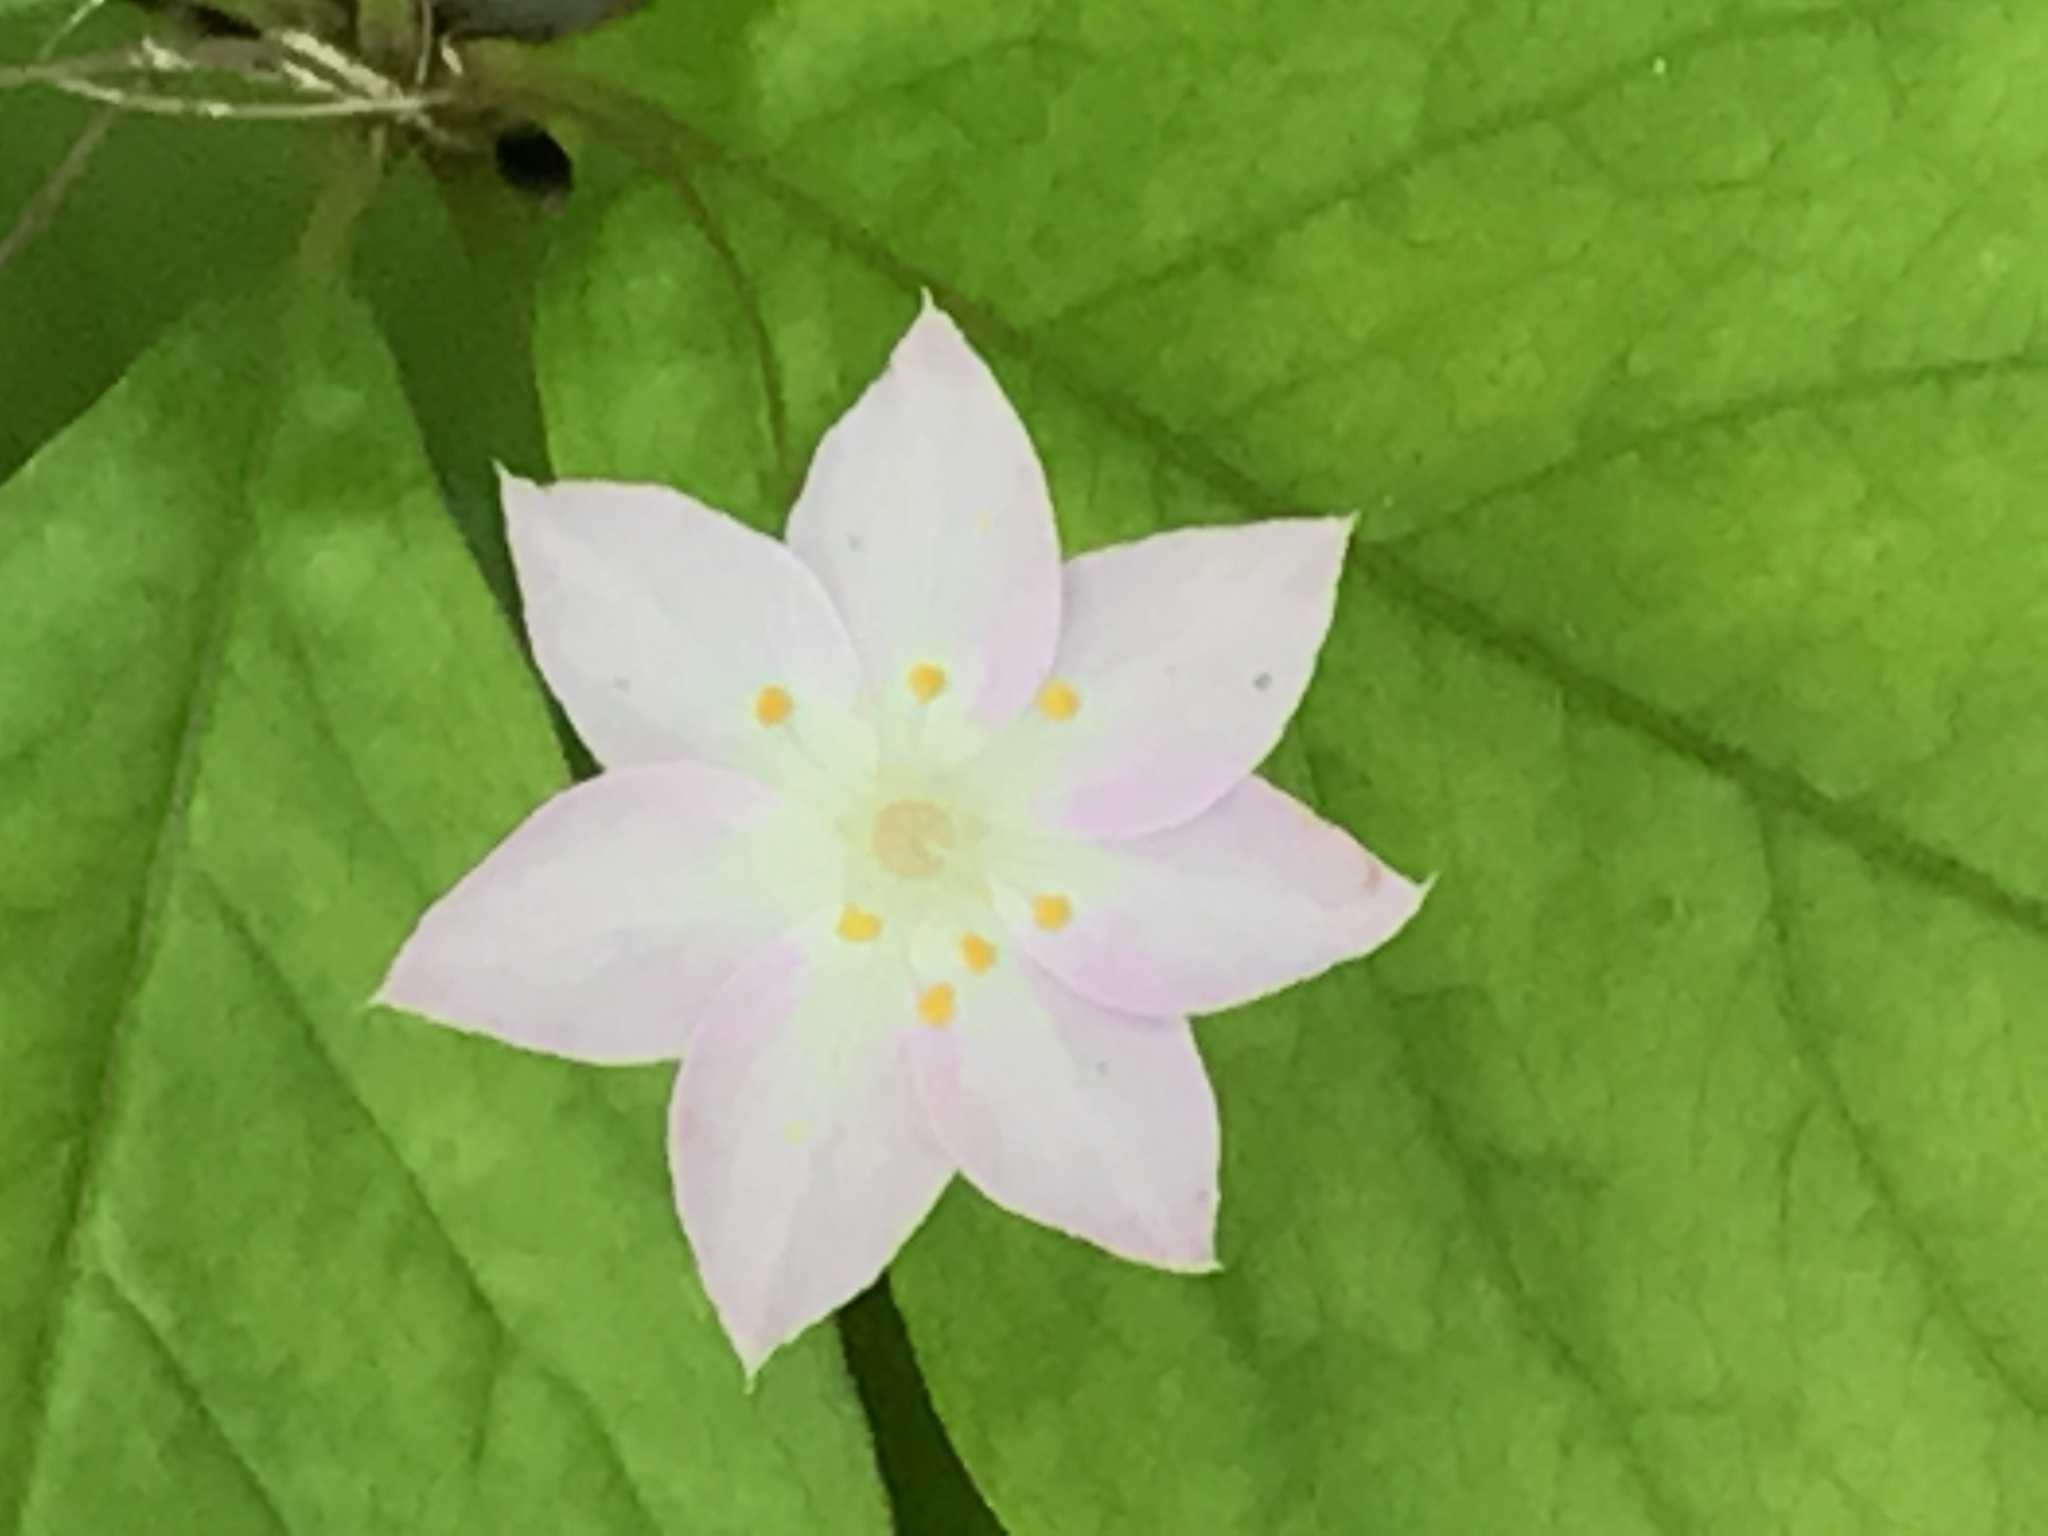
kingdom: Plantae
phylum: Tracheophyta
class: Magnoliopsida
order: Ericales
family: Primulaceae
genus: Lysimachia
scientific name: Lysimachia latifolia
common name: Pacific starflower
